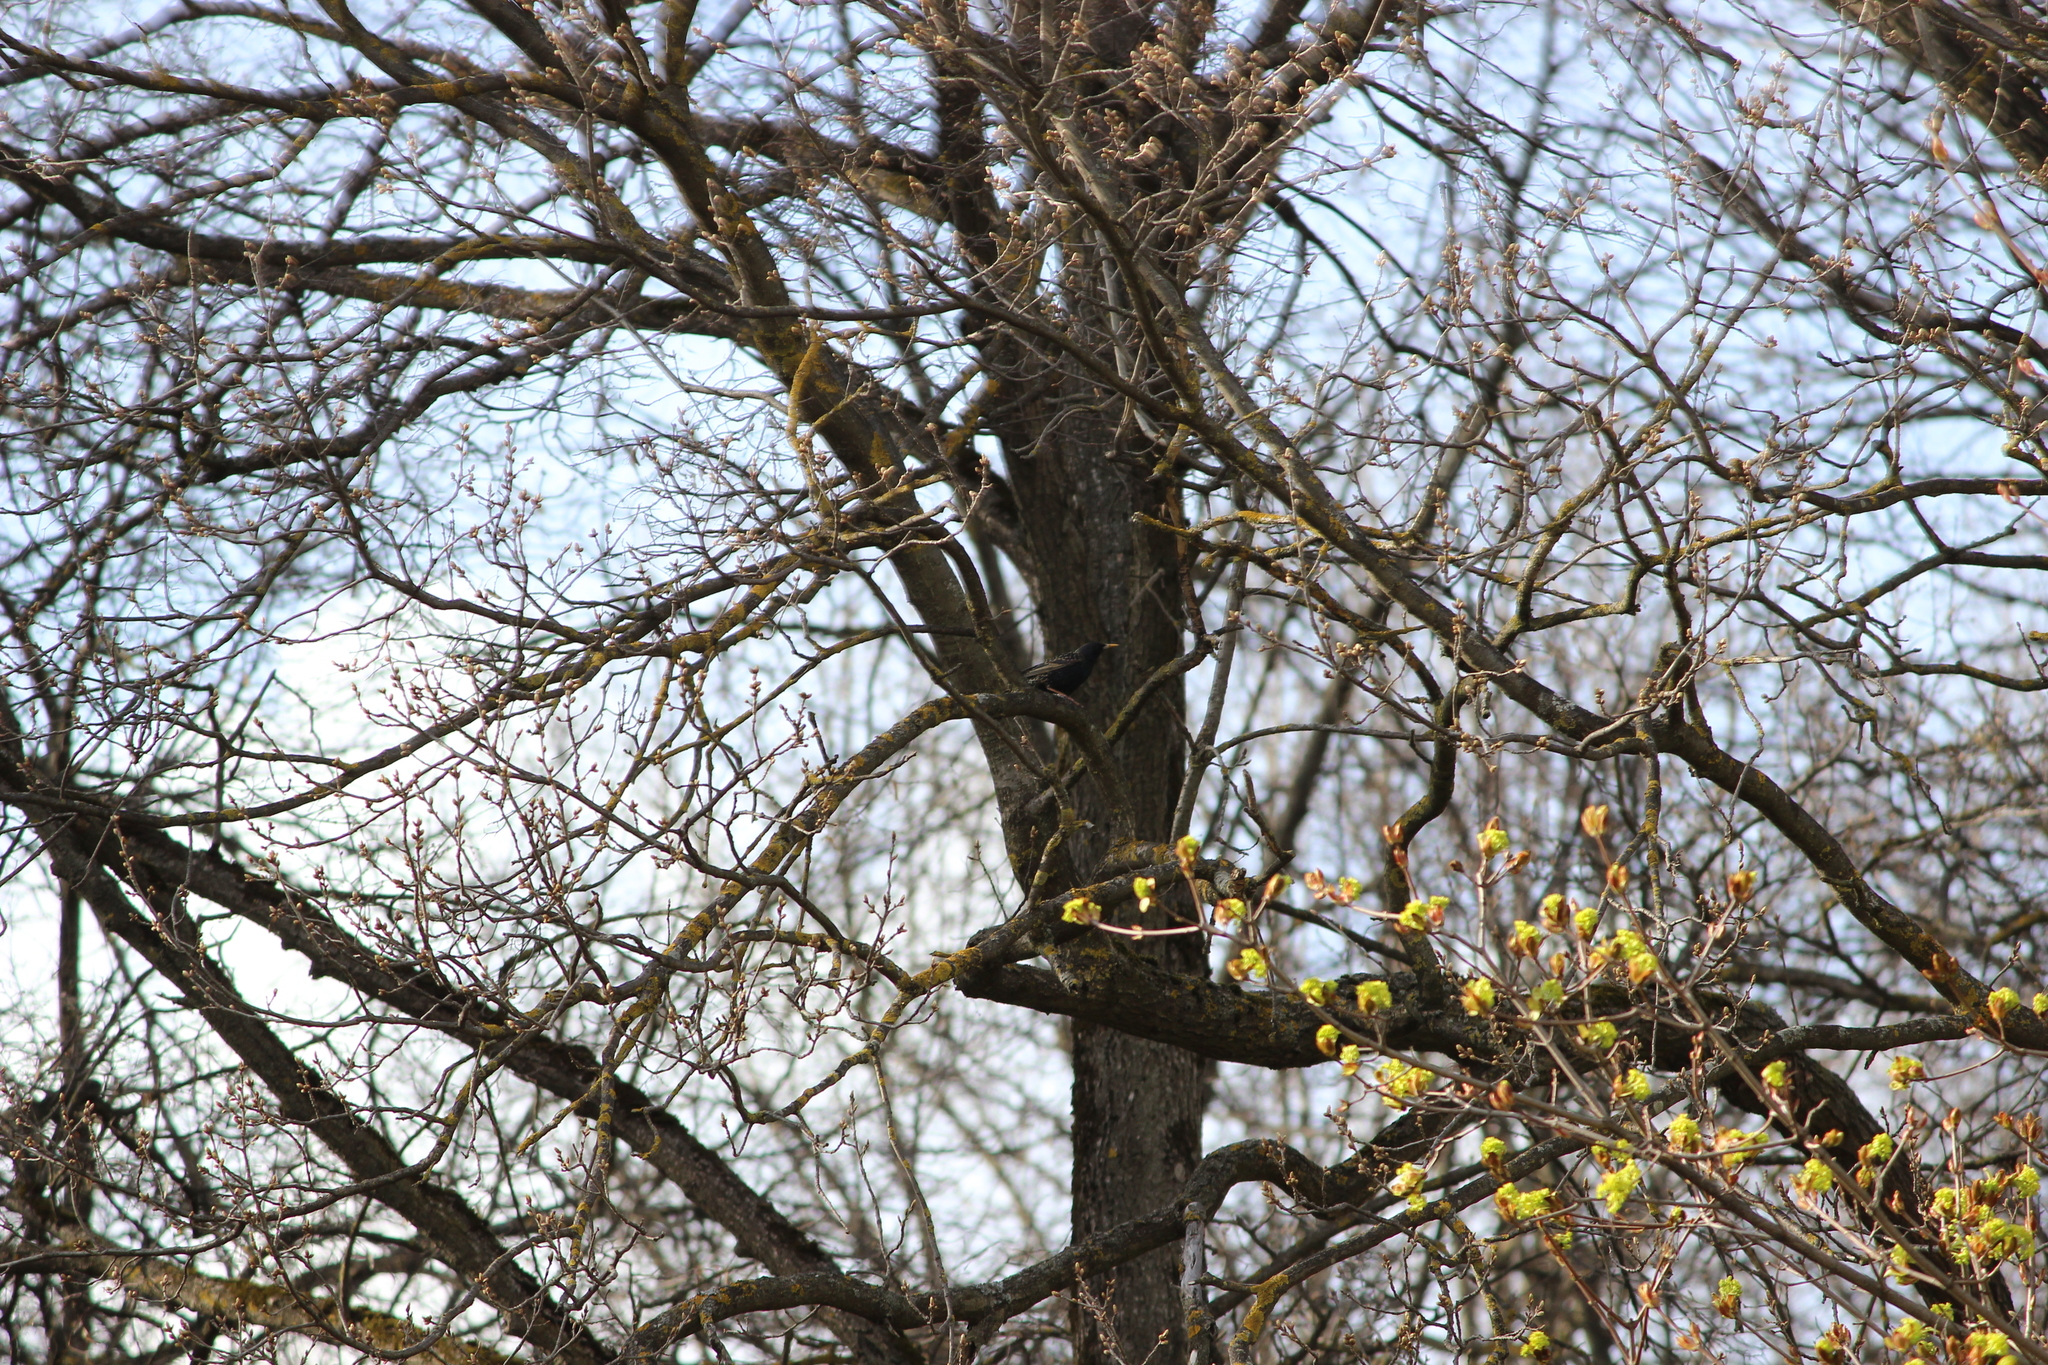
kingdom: Animalia
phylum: Chordata
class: Aves
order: Passeriformes
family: Sturnidae
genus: Sturnus
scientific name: Sturnus vulgaris
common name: Common starling
